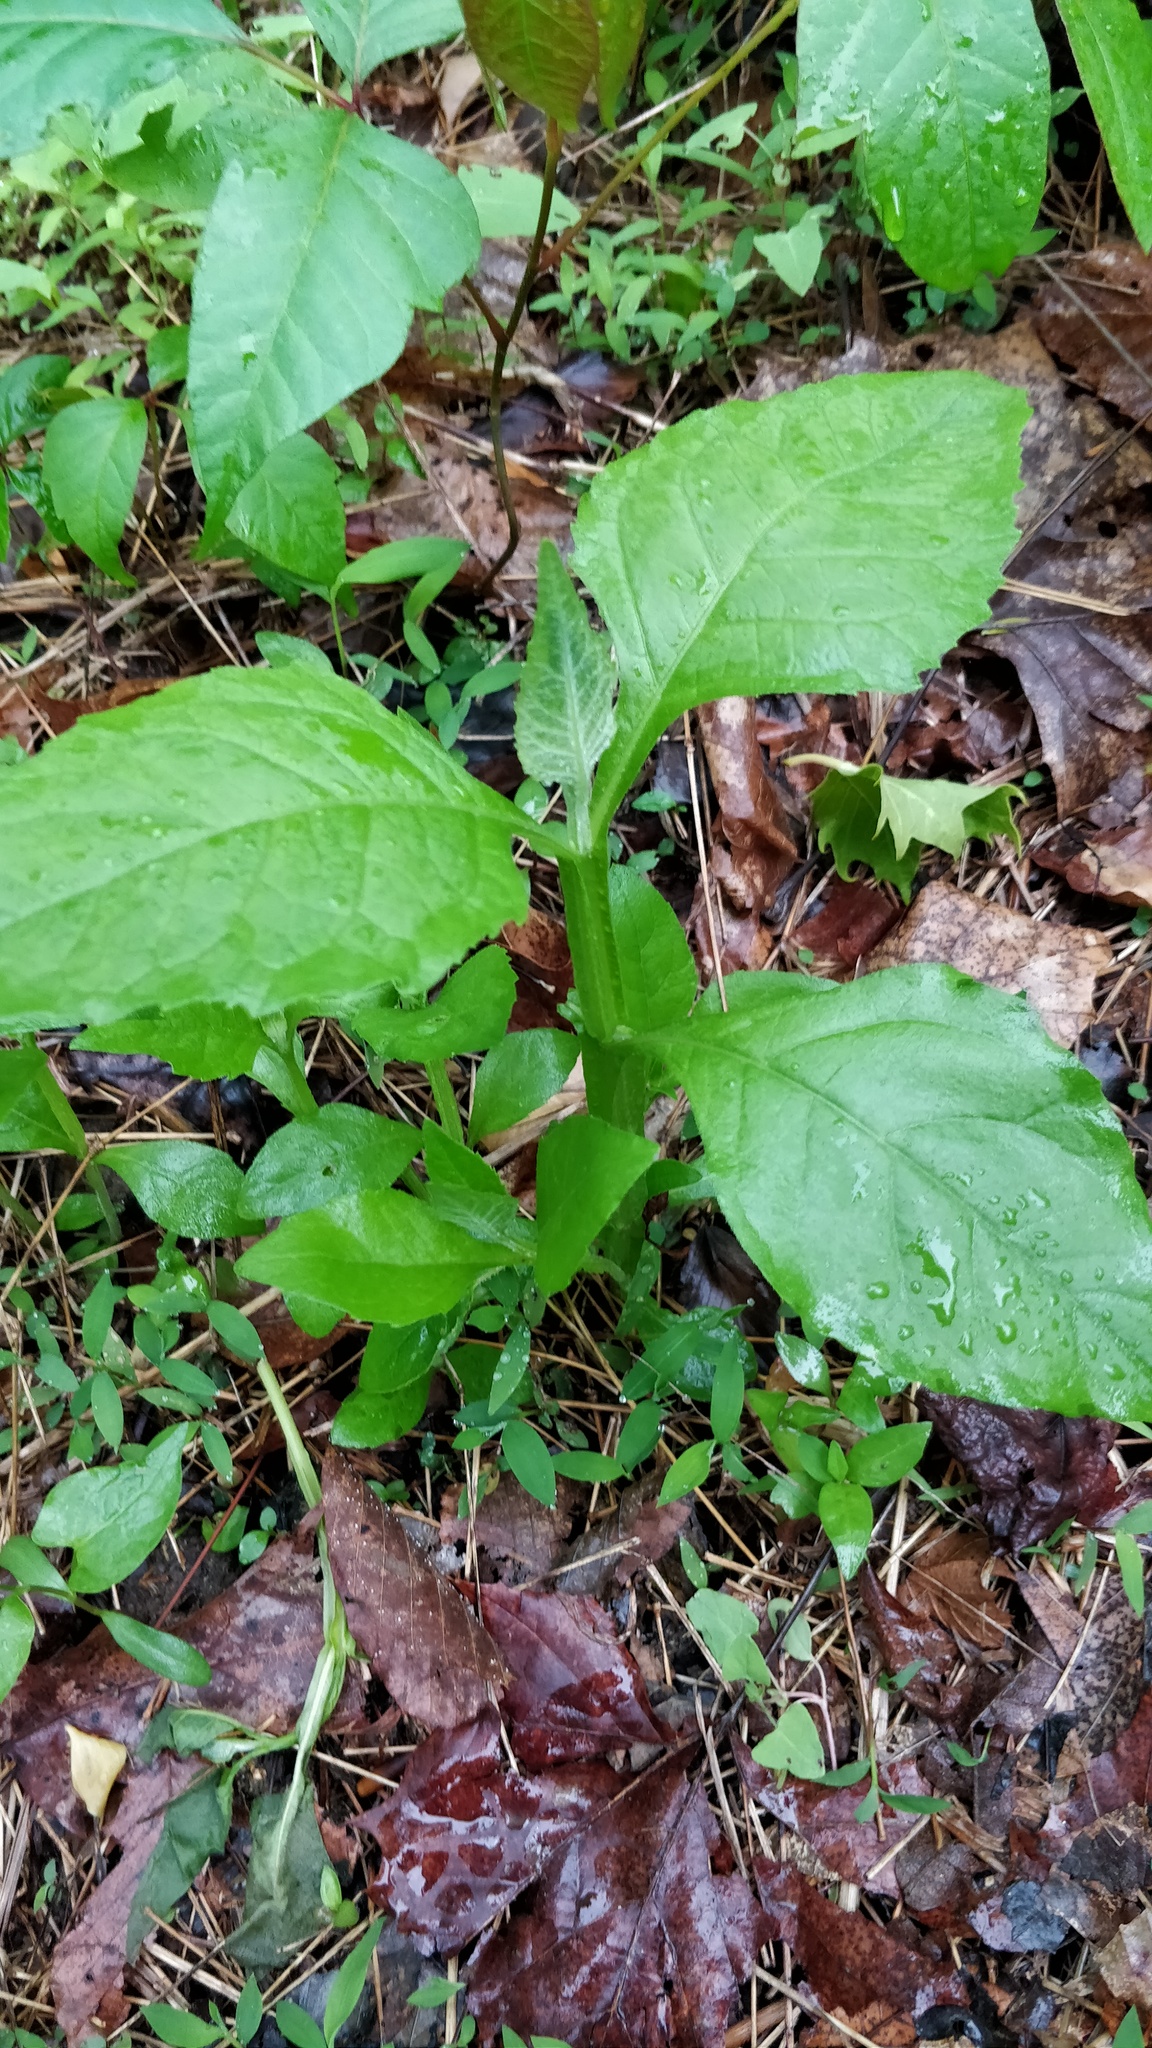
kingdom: Plantae
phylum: Tracheophyta
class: Magnoliopsida
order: Asterales
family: Asteraceae
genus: Verbesina
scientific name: Verbesina occidentalis
